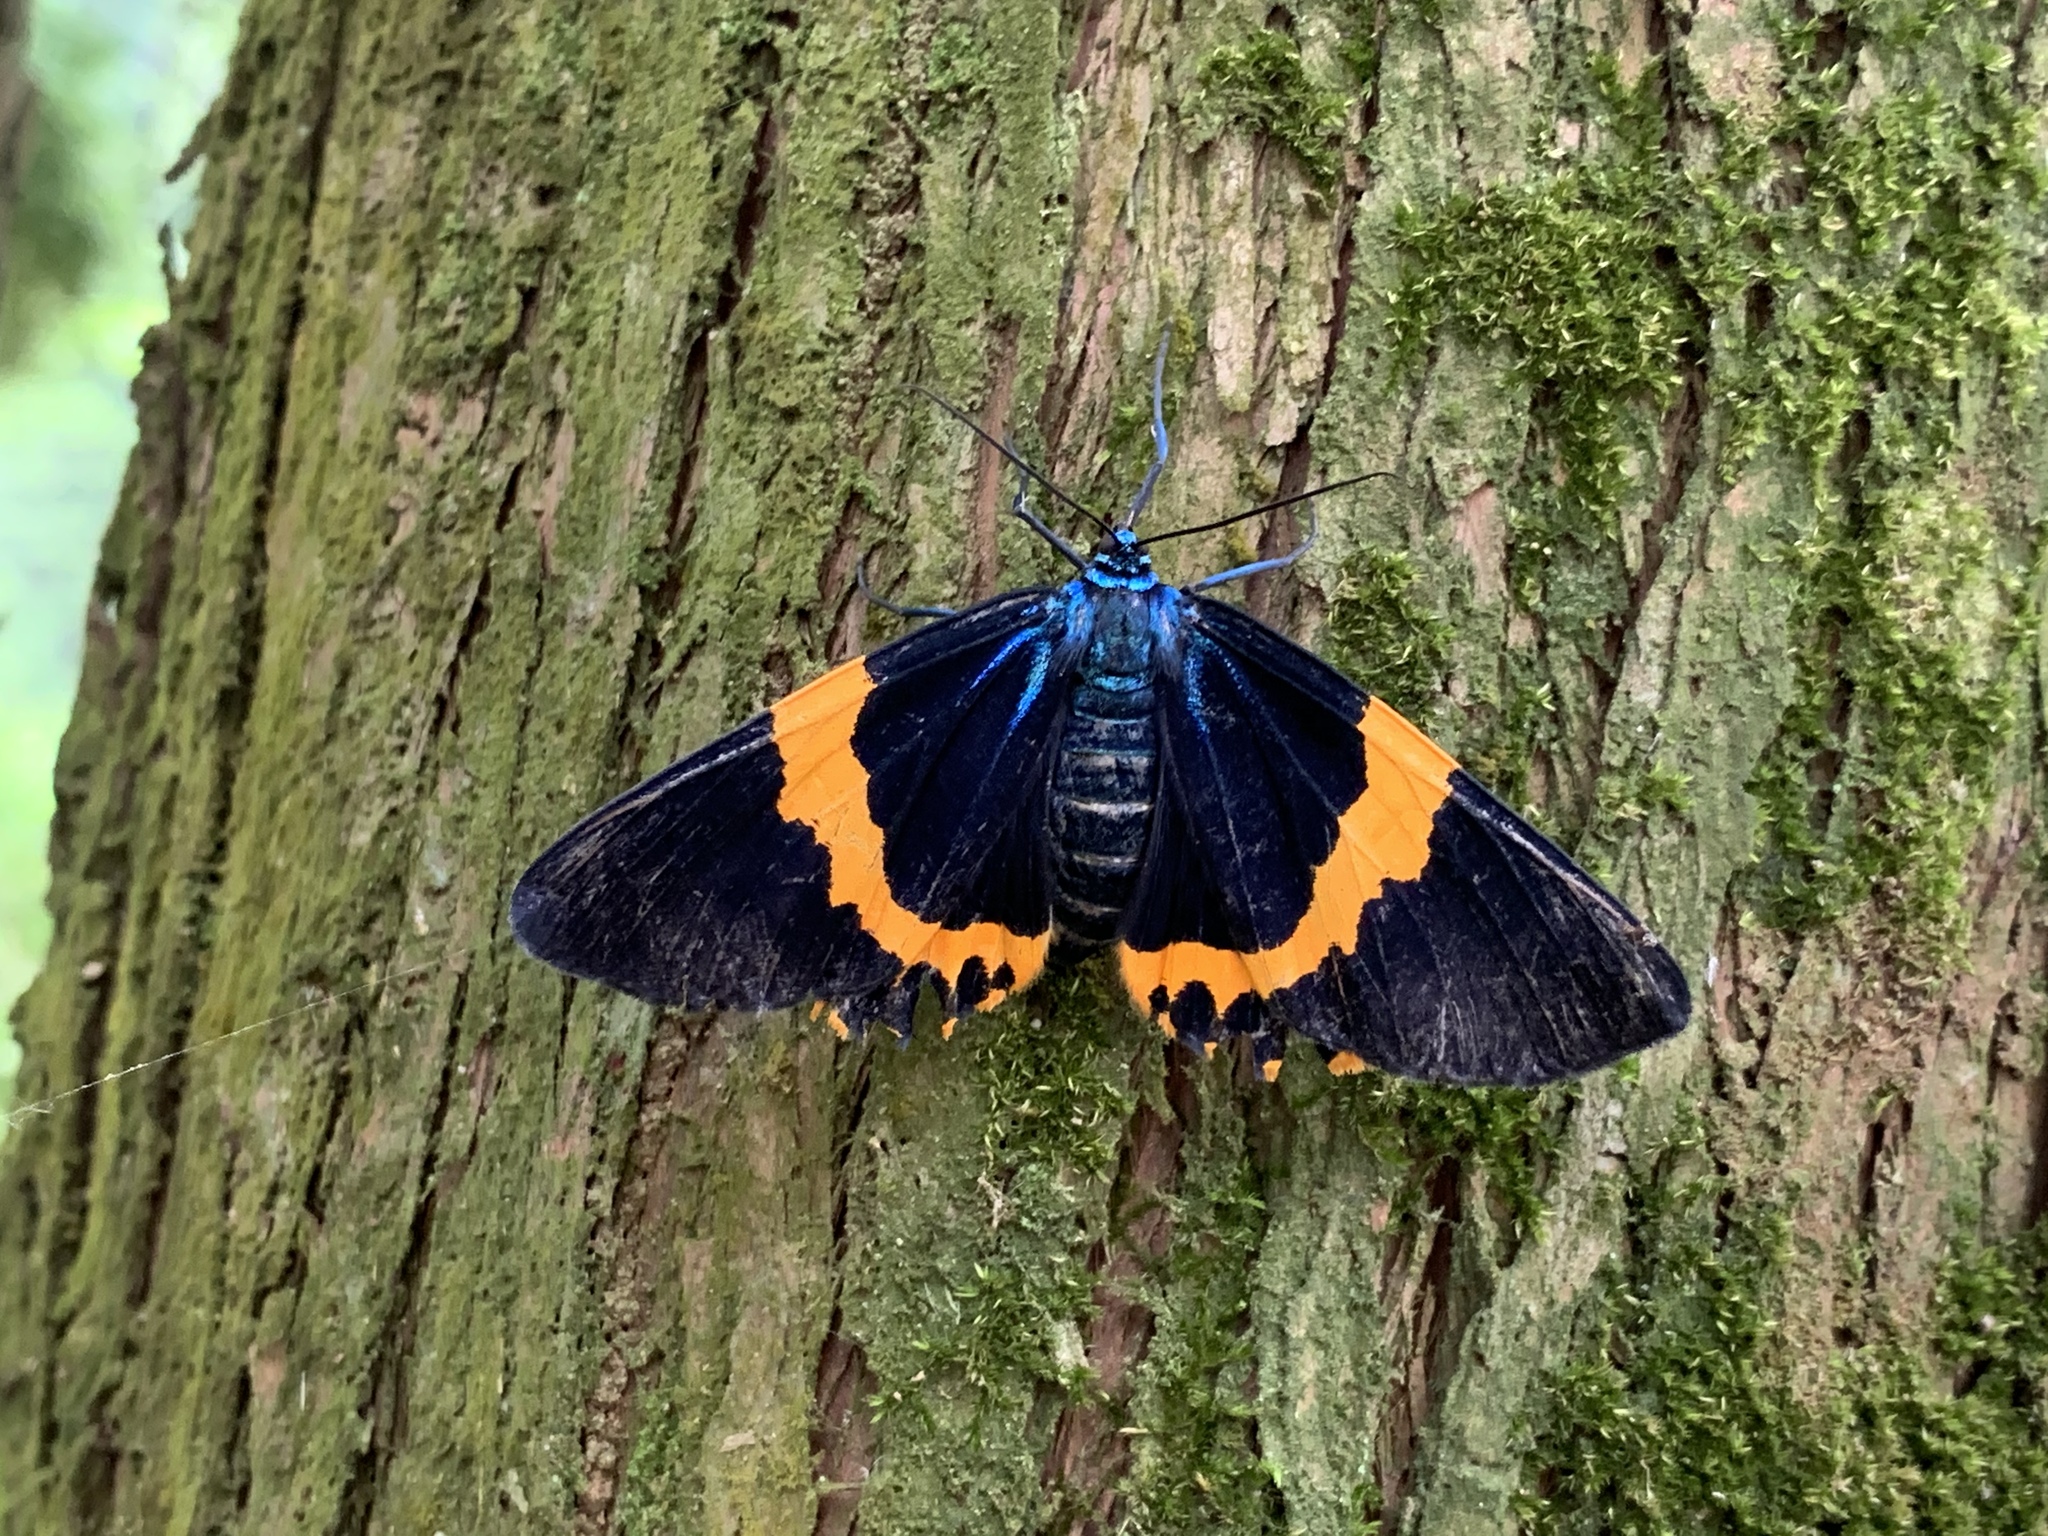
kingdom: Animalia
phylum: Arthropoda
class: Insecta
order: Lepidoptera
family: Geometridae
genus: Milionia
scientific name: Milionia basalis
